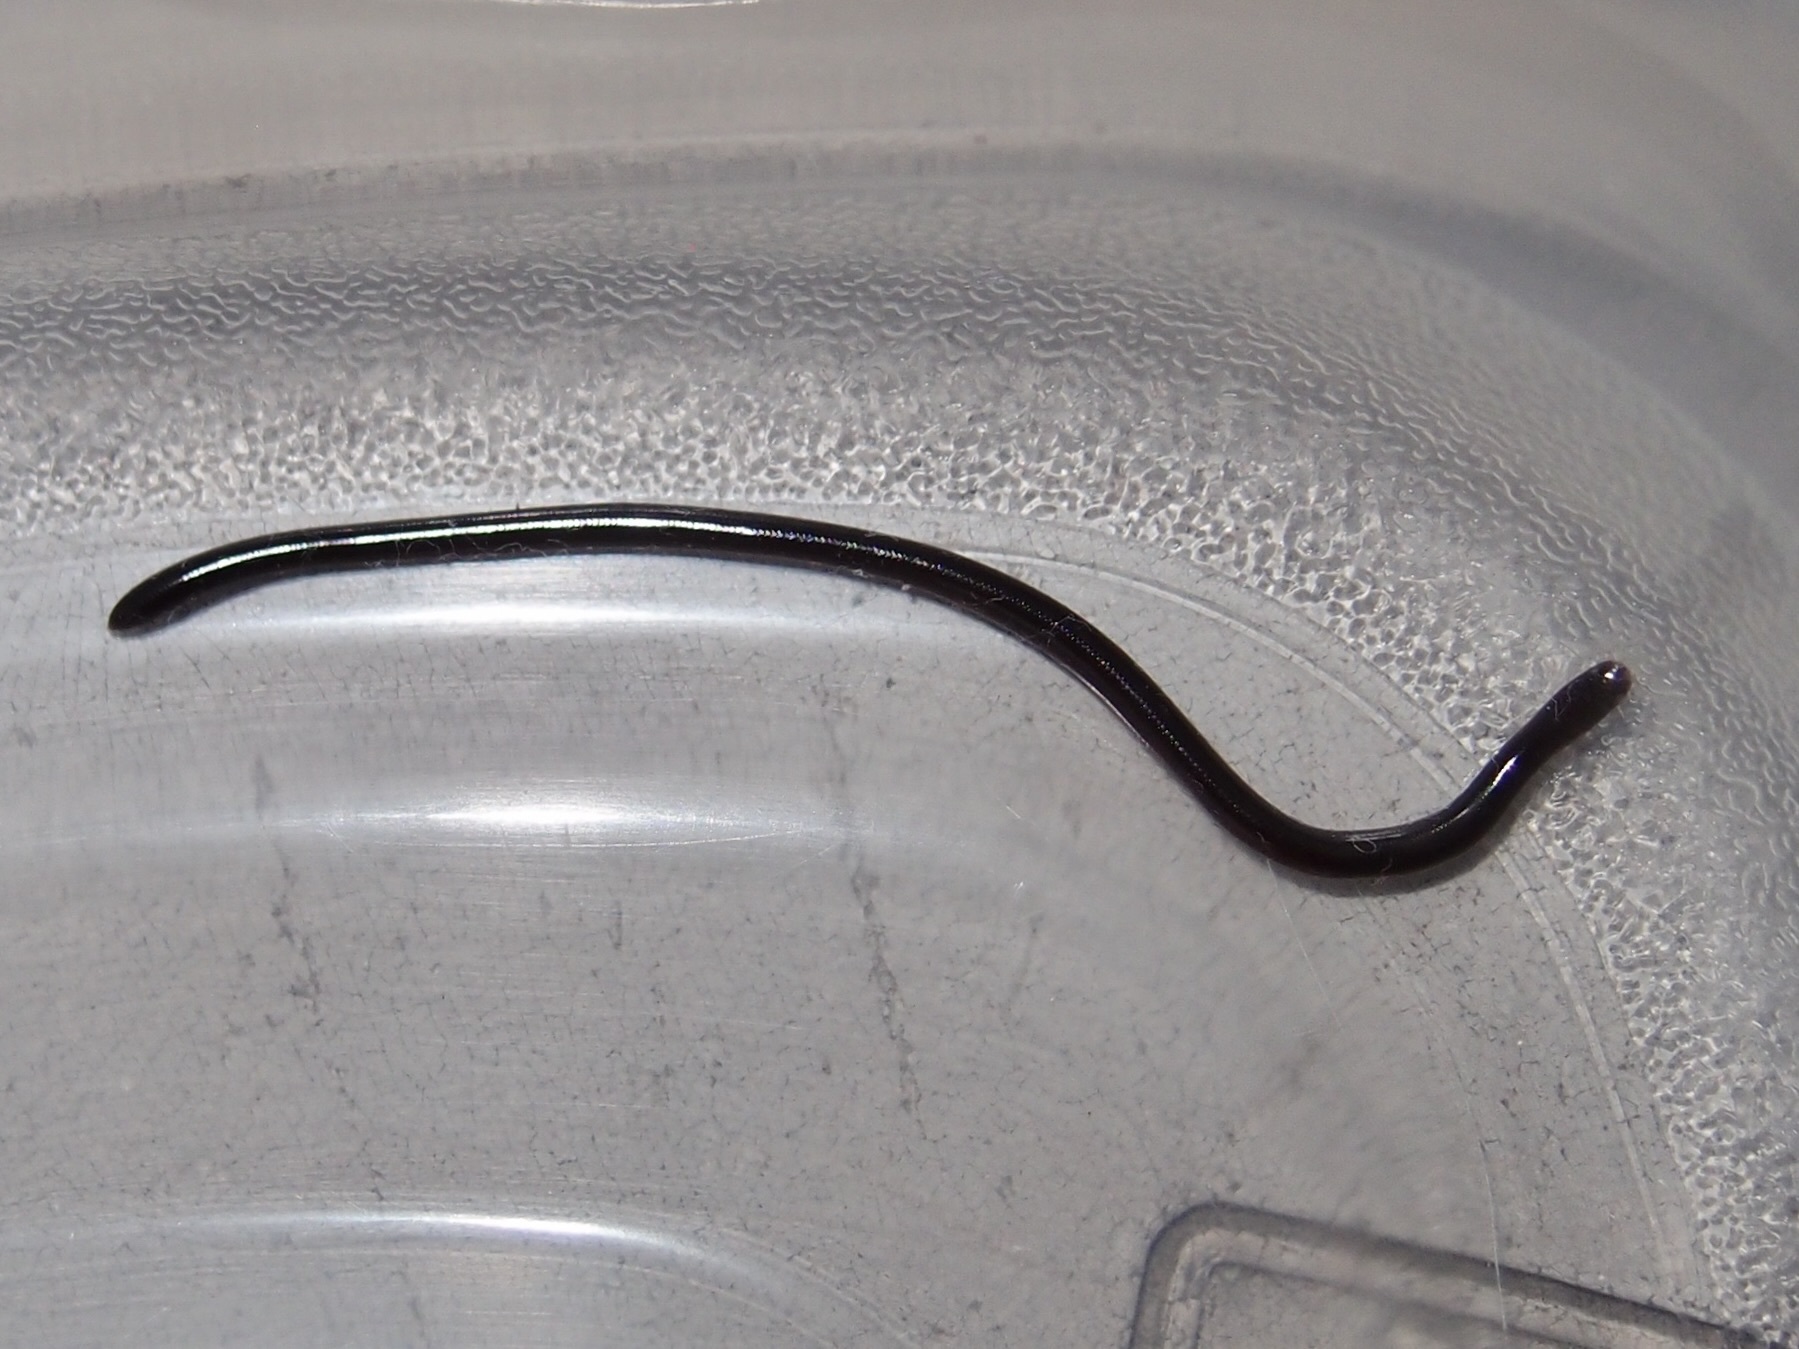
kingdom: Animalia
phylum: Chordata
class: Squamata
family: Typhlopidae
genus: Indotyphlops
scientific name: Indotyphlops braminus
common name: Brahminy blindsnake
